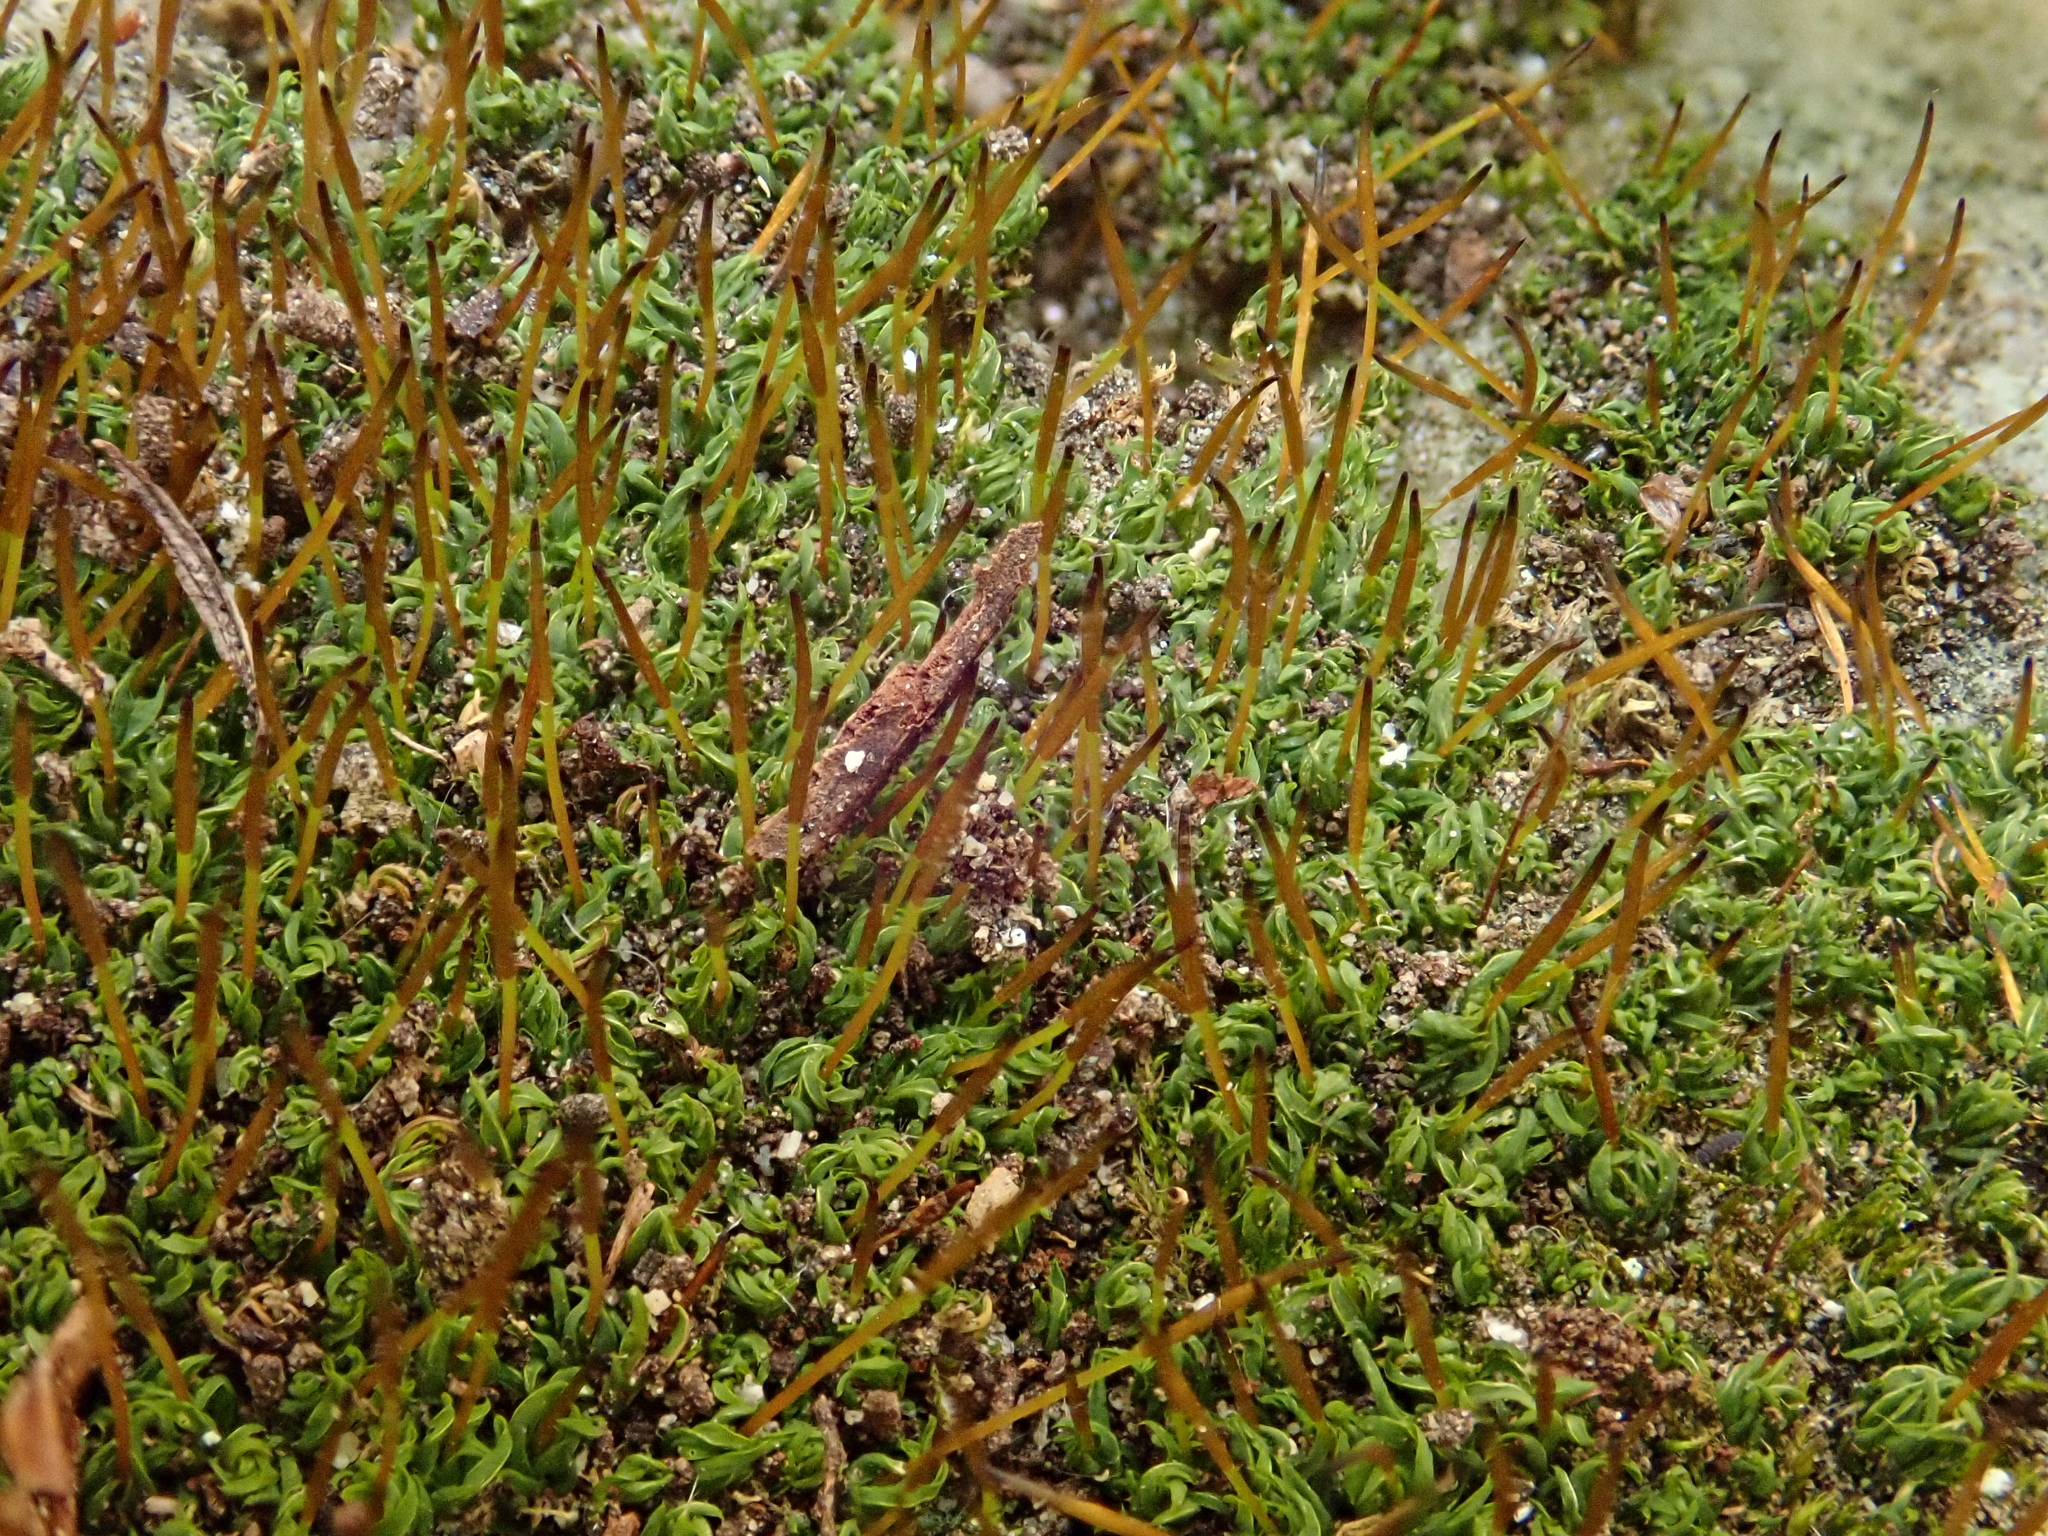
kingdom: Plantae
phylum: Bryophyta
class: Bryopsida
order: Pottiales
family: Pottiaceae
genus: Tortula
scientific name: Tortula muralis
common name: Wall screw-moss
